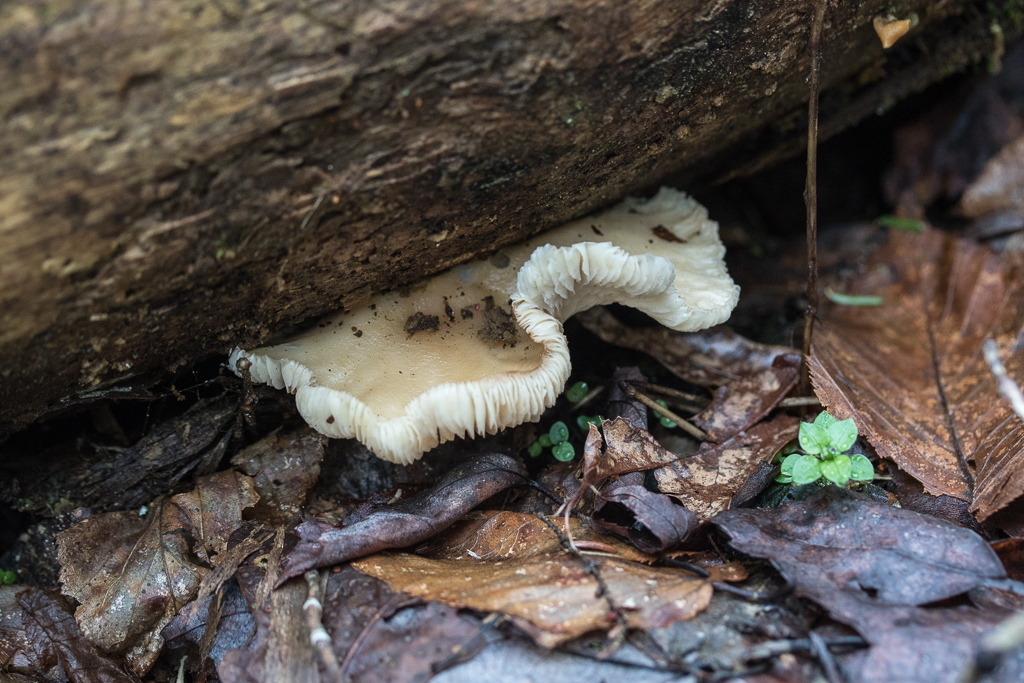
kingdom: Fungi
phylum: Basidiomycota
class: Agaricomycetes
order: Agaricales
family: Pleurotaceae
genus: Pleurotus
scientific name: Pleurotus ostreatus
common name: Oyster mushroom
